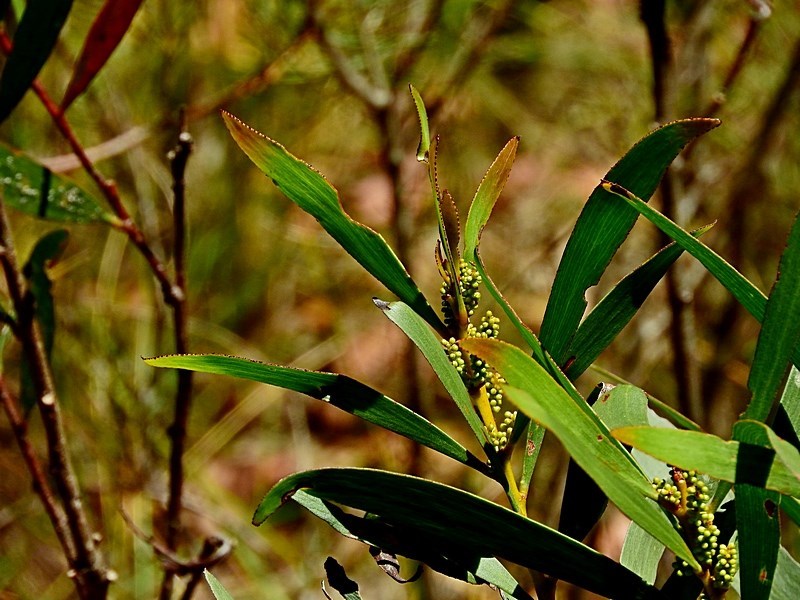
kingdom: Plantae
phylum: Tracheophyta
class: Magnoliopsida
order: Fabales
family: Fabaceae
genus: Acacia
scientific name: Acacia obtusifolia
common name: Stiff-leaf wattle
